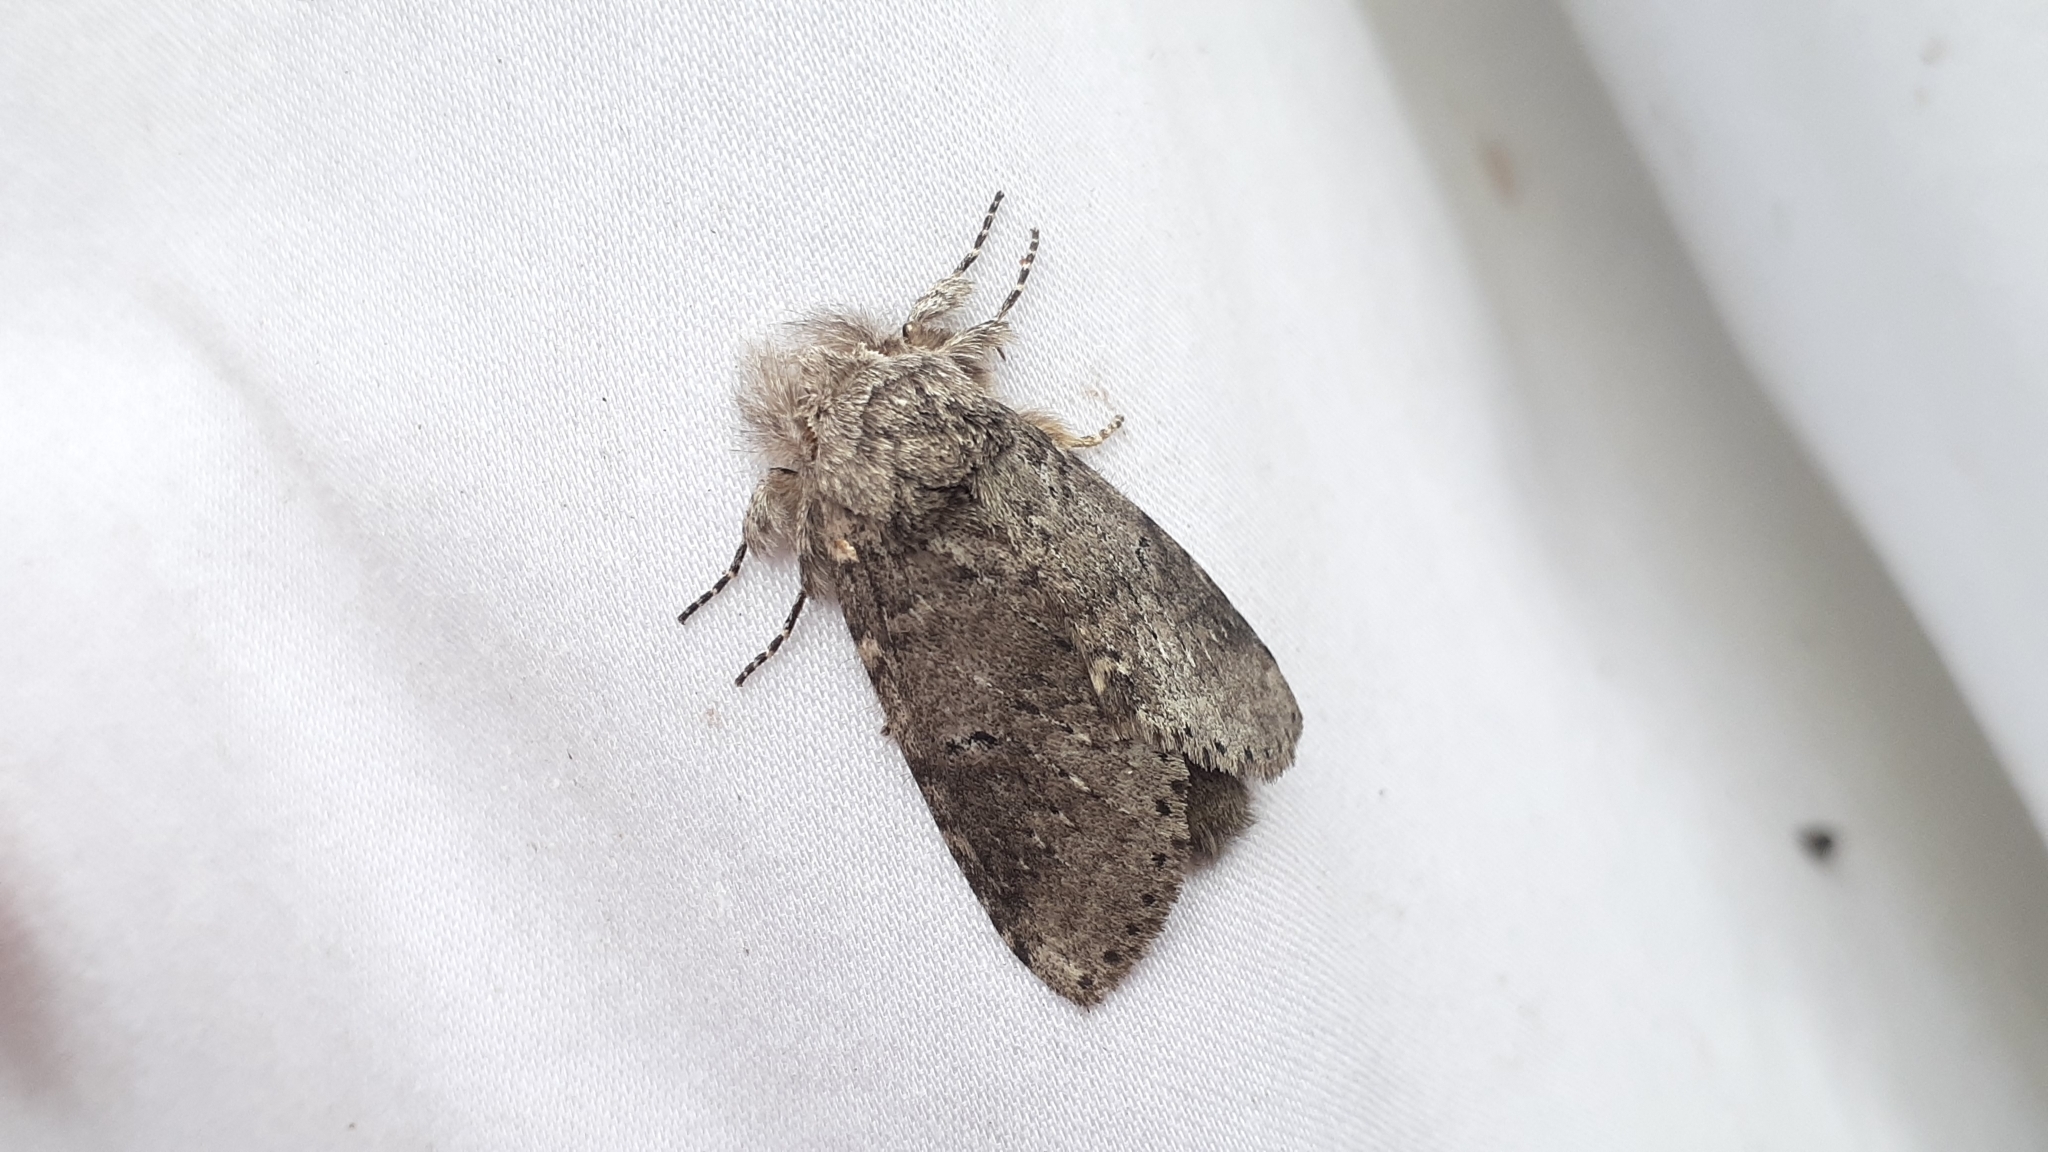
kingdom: Animalia
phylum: Arthropoda
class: Insecta
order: Lepidoptera
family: Notodontidae
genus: Lochmaeus
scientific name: Lochmaeus manteo
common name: Variable oakleaf caterpillar moth
